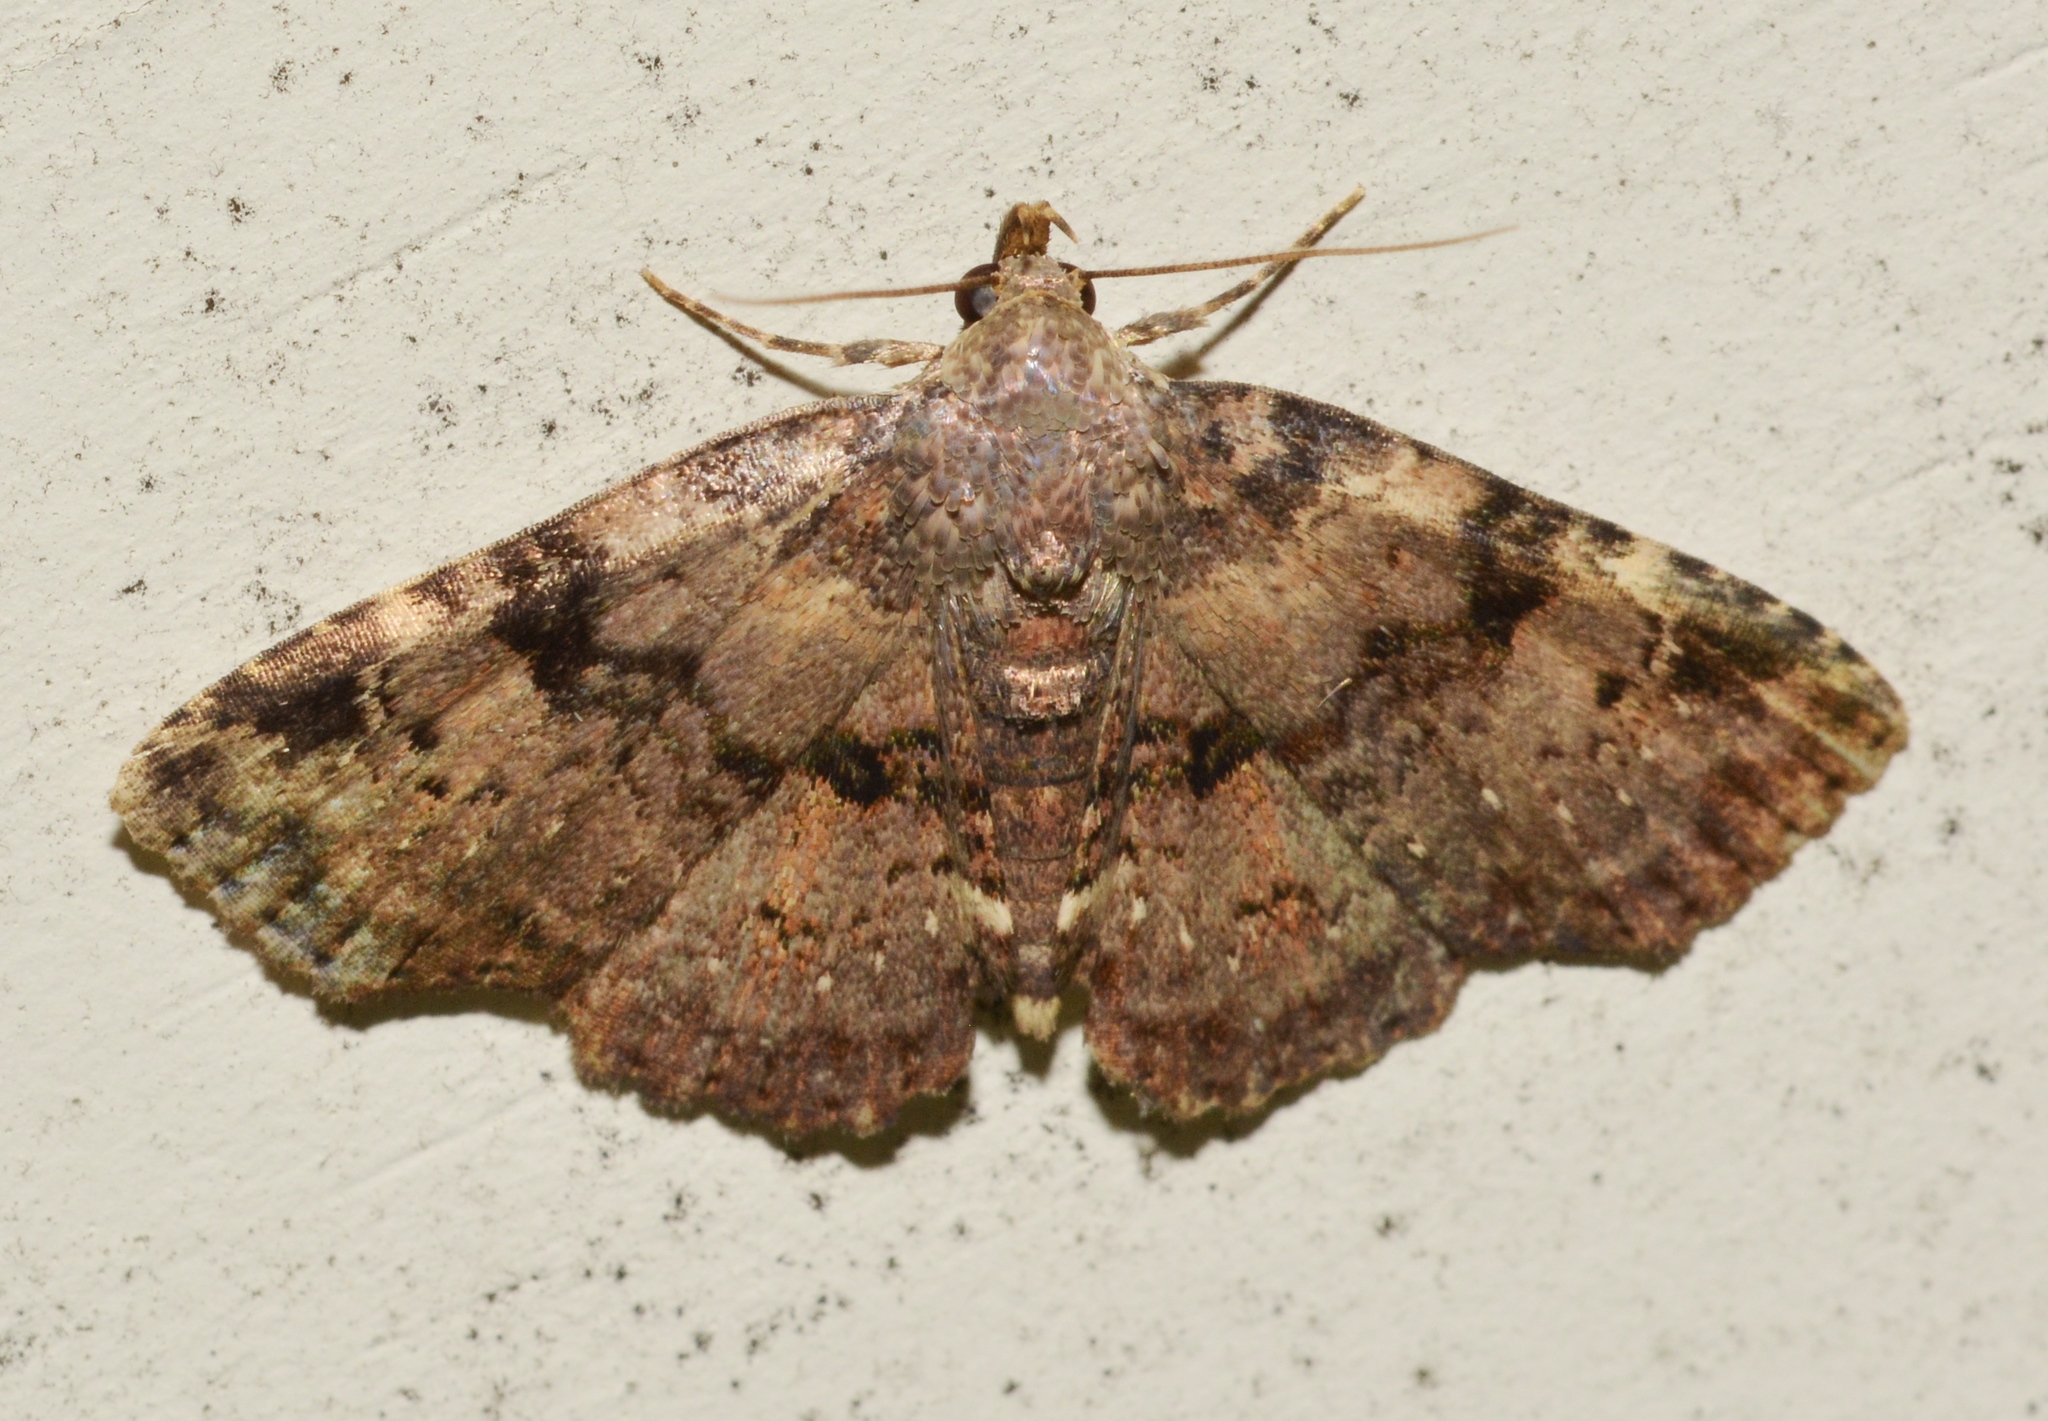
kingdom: Animalia
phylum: Arthropoda
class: Insecta
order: Lepidoptera
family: Erebidae
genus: Metalectra
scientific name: Metalectra quadrisignata
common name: Four-spotted fungus moth
